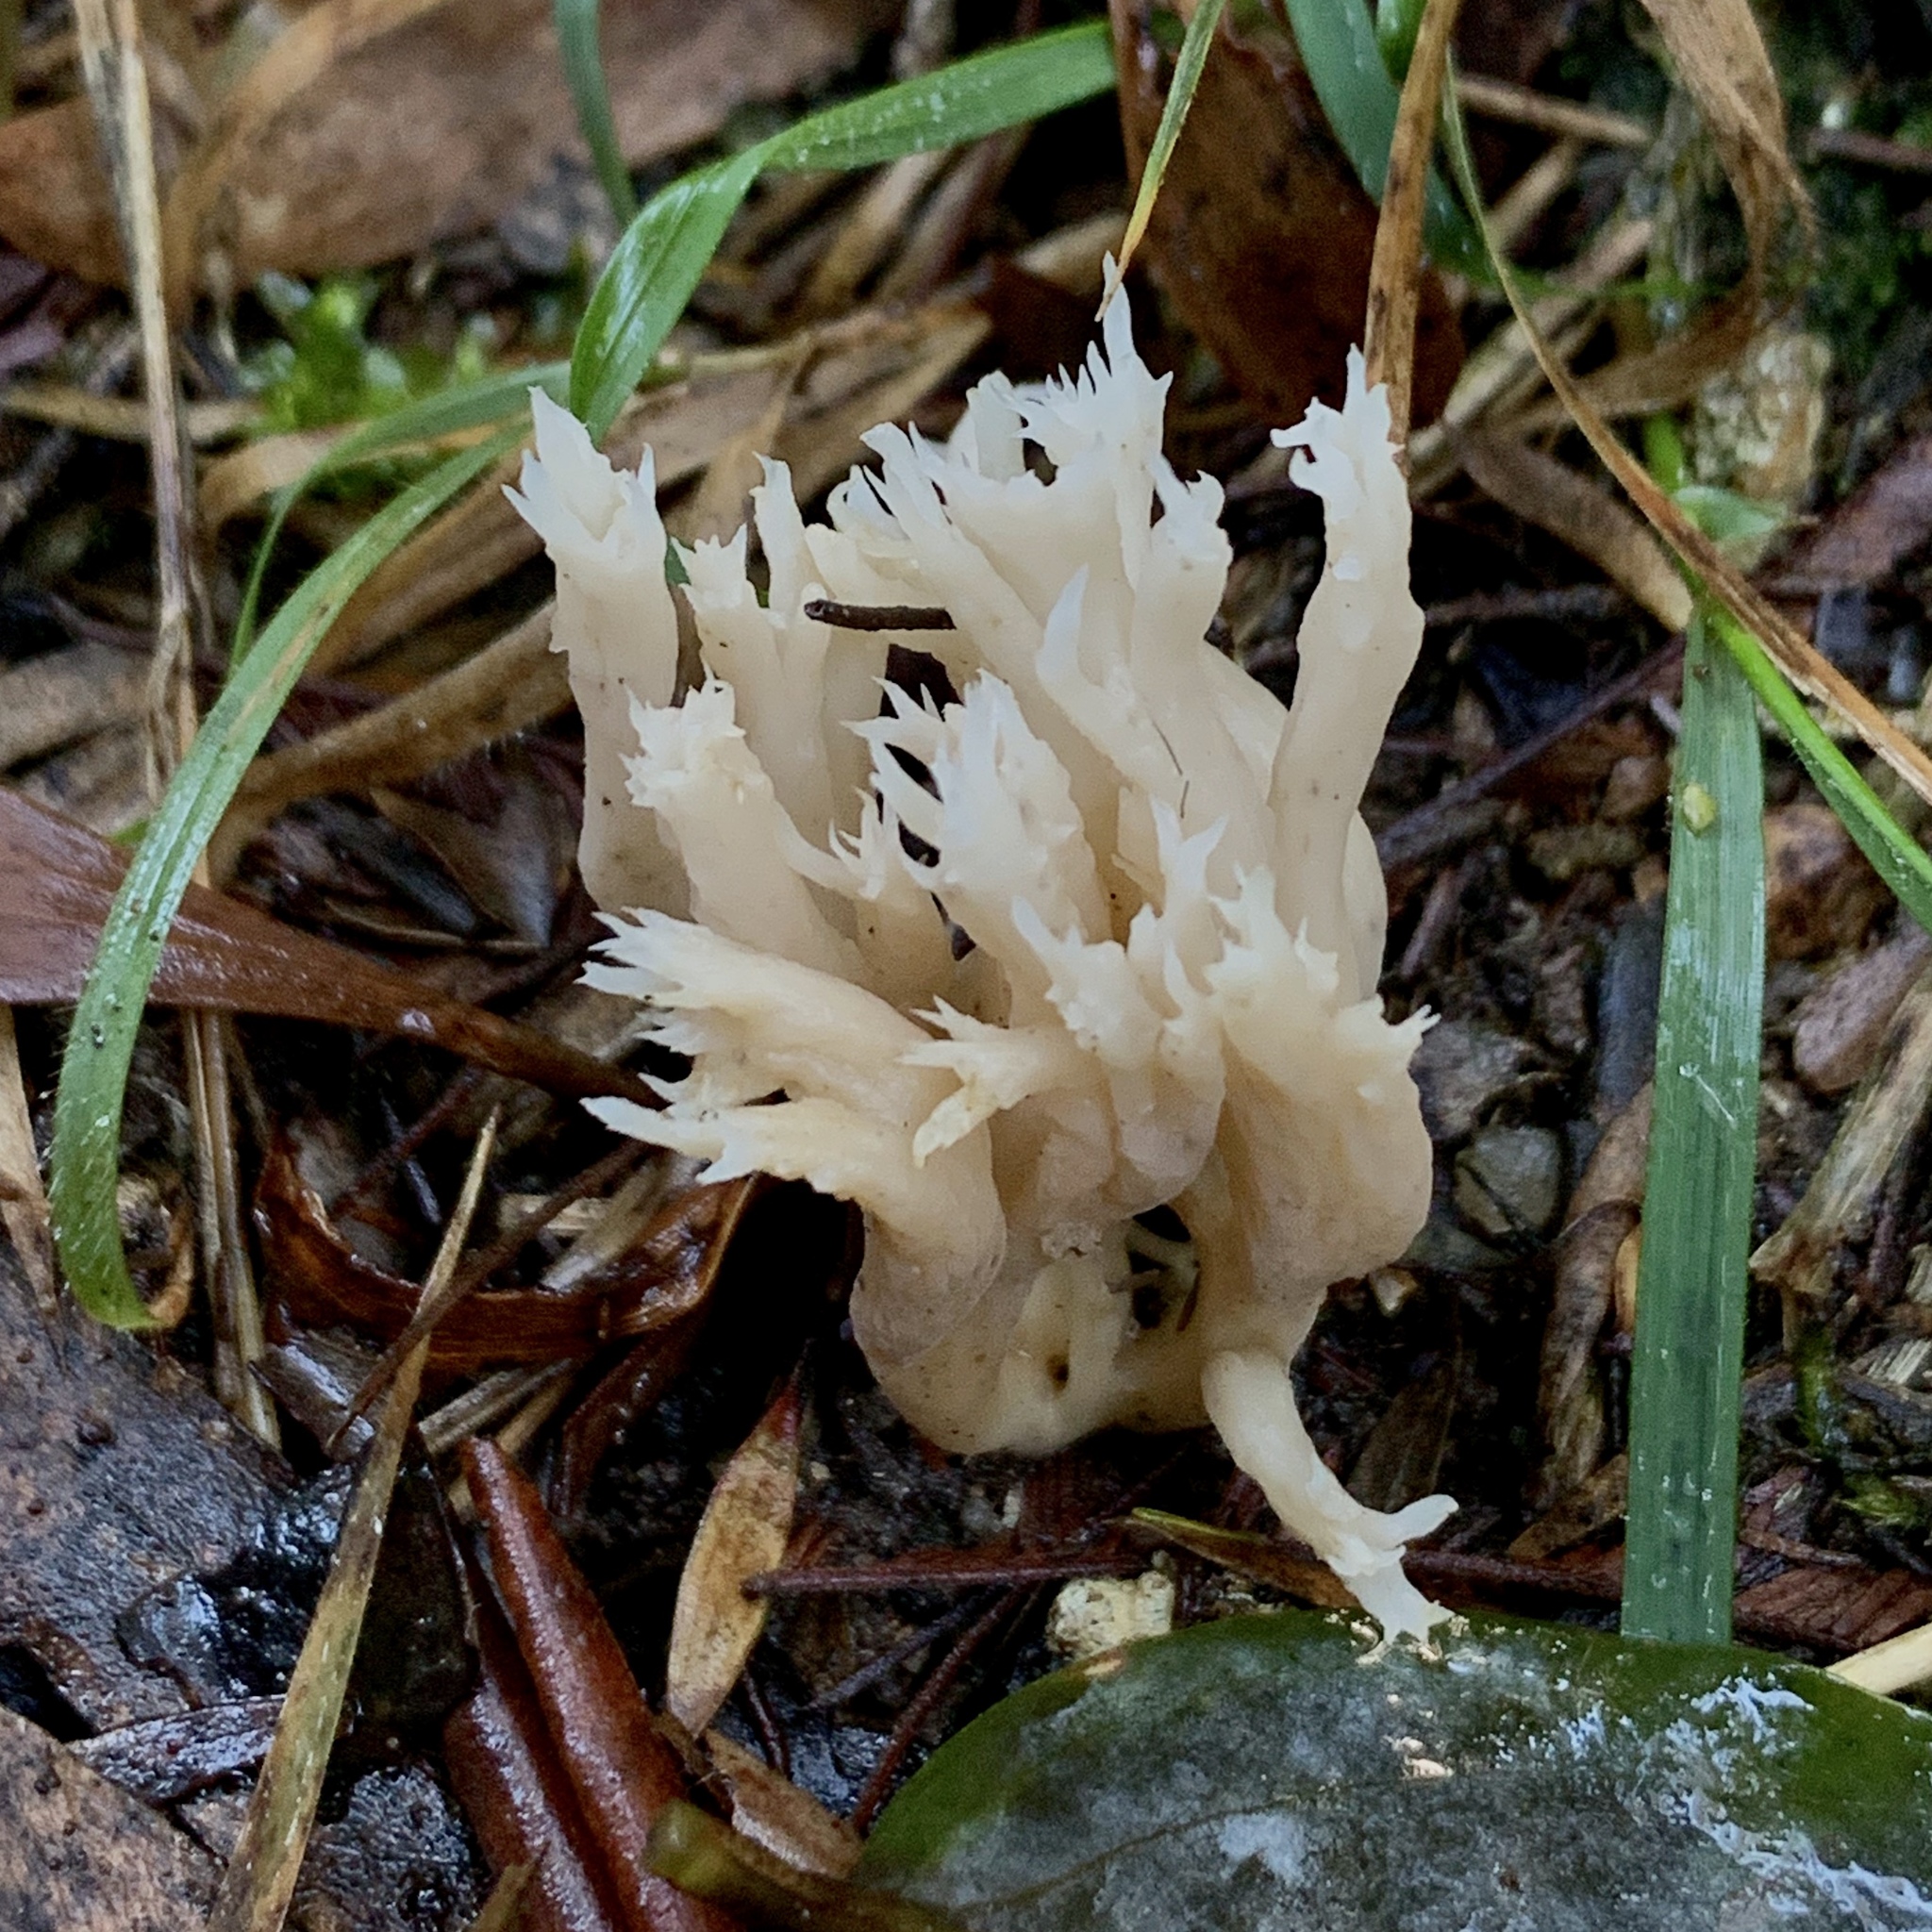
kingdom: Fungi
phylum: Basidiomycota
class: Agaricomycetes
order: Cantharellales
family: Hydnaceae
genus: Clavulina
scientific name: Clavulina coralloides
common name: Crested coral
